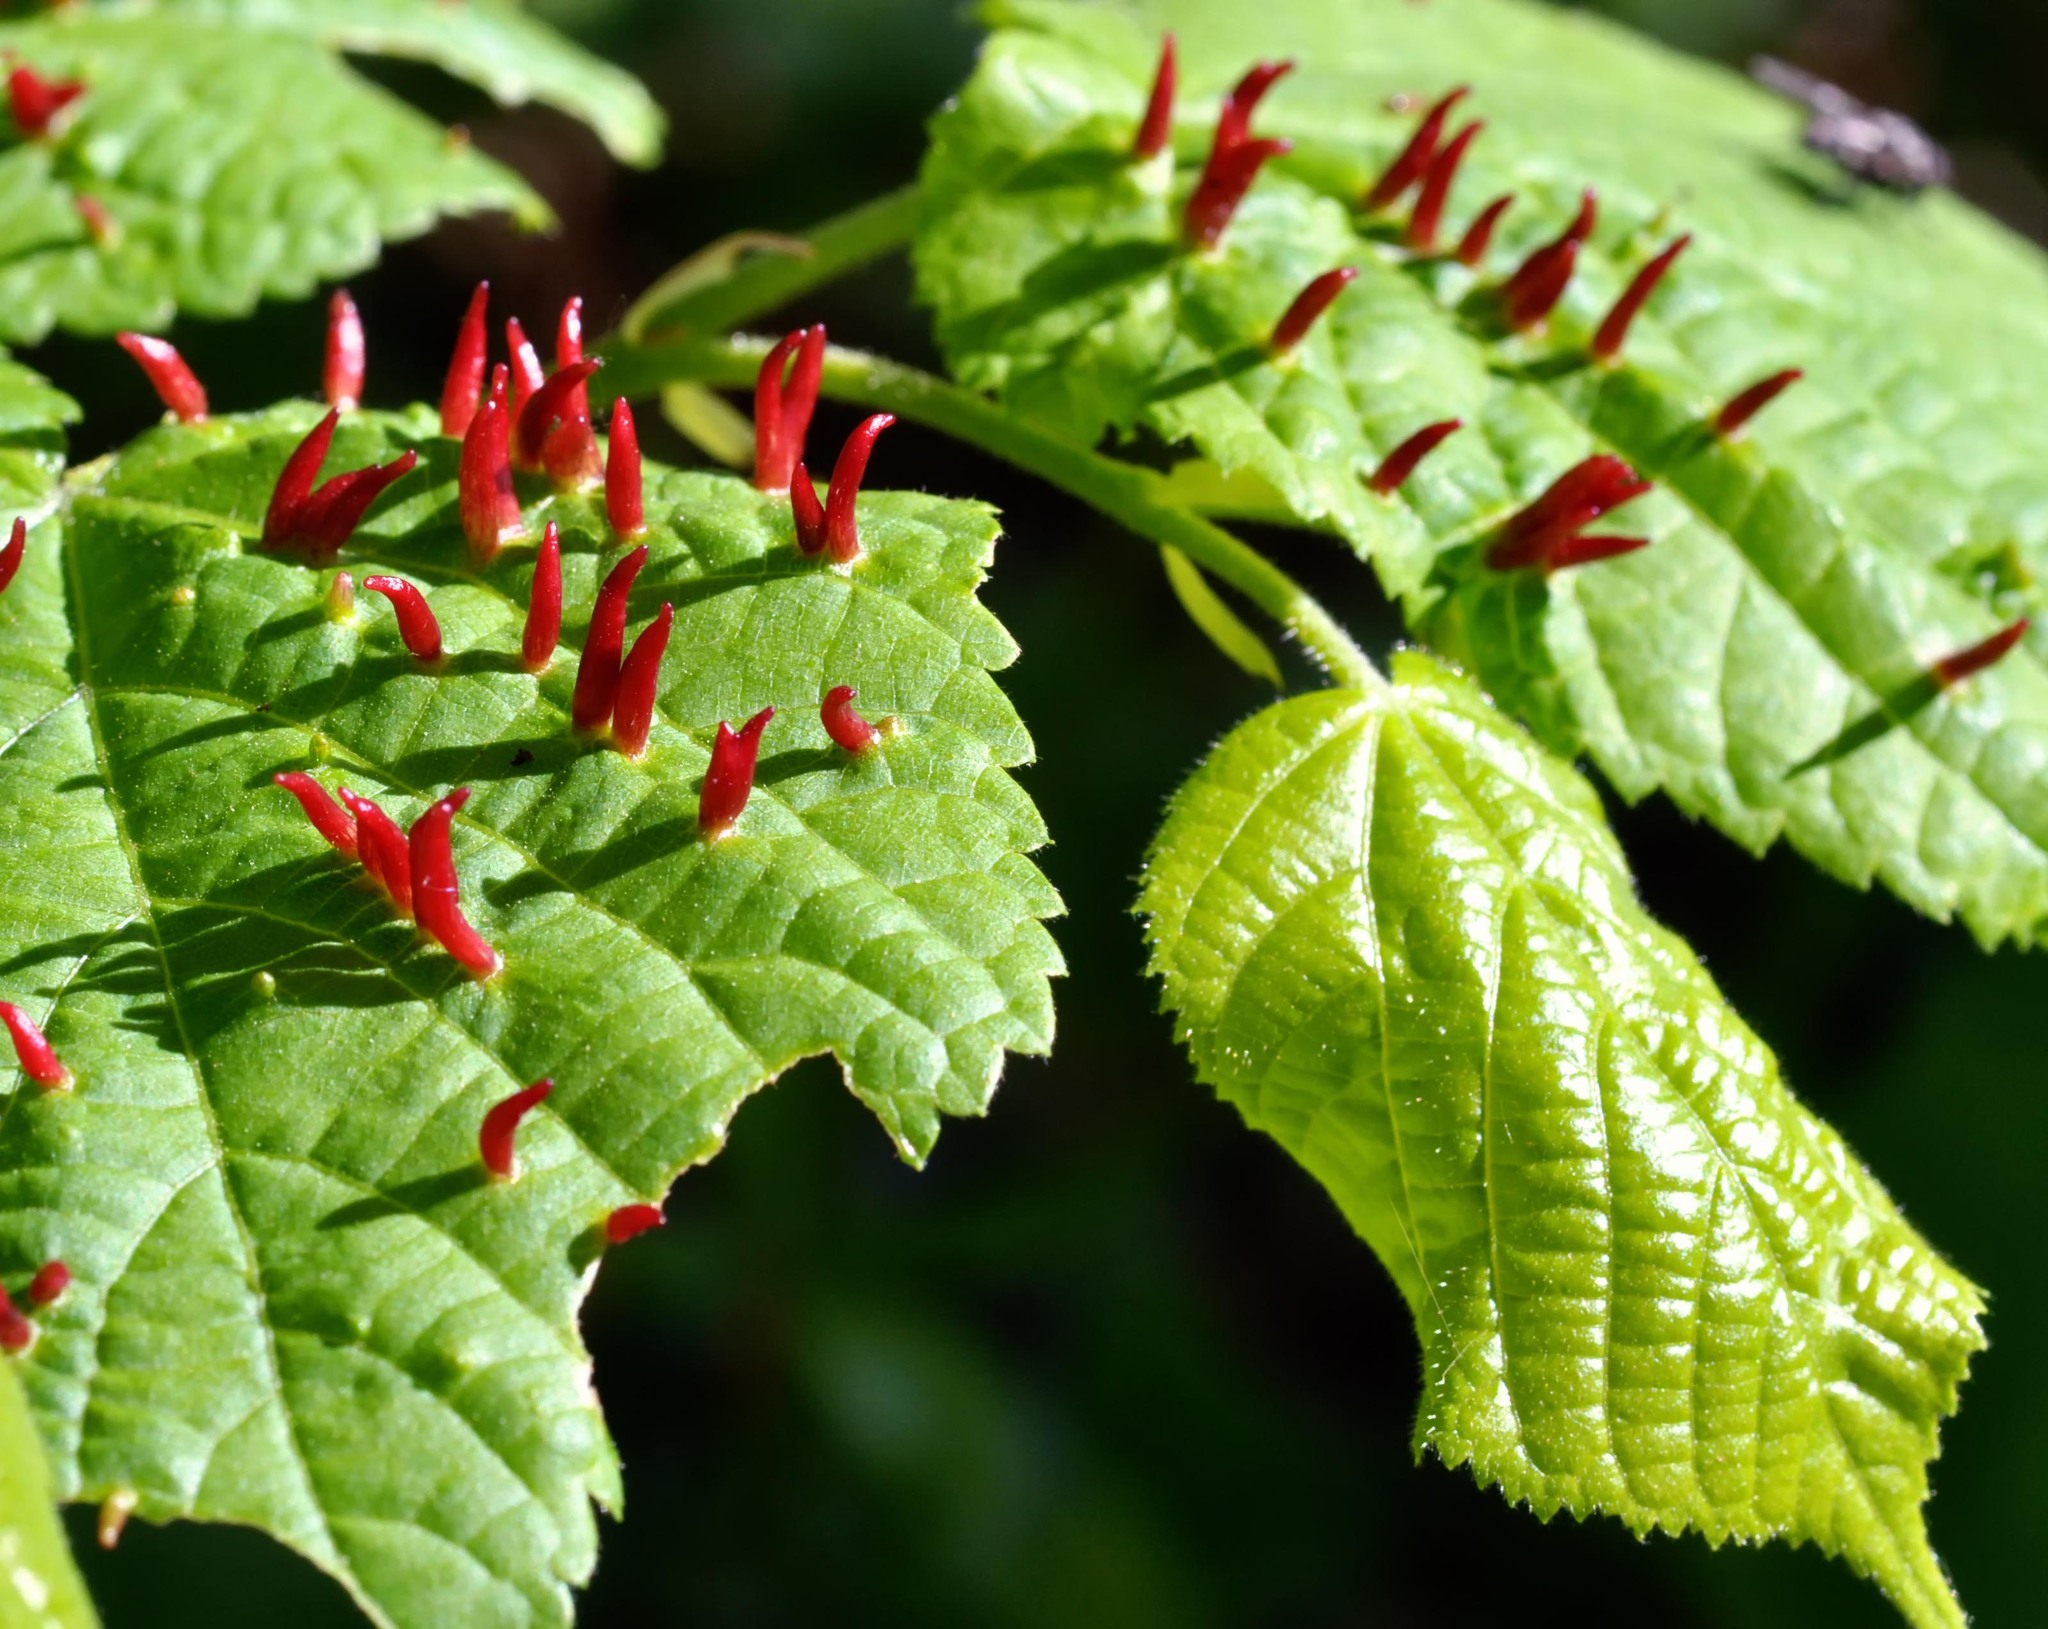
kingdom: Animalia
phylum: Arthropoda
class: Arachnida
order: Trombidiformes
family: Eriophyidae
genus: Eriophyes
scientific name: Eriophyes tiliae
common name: Red nail gall mite
